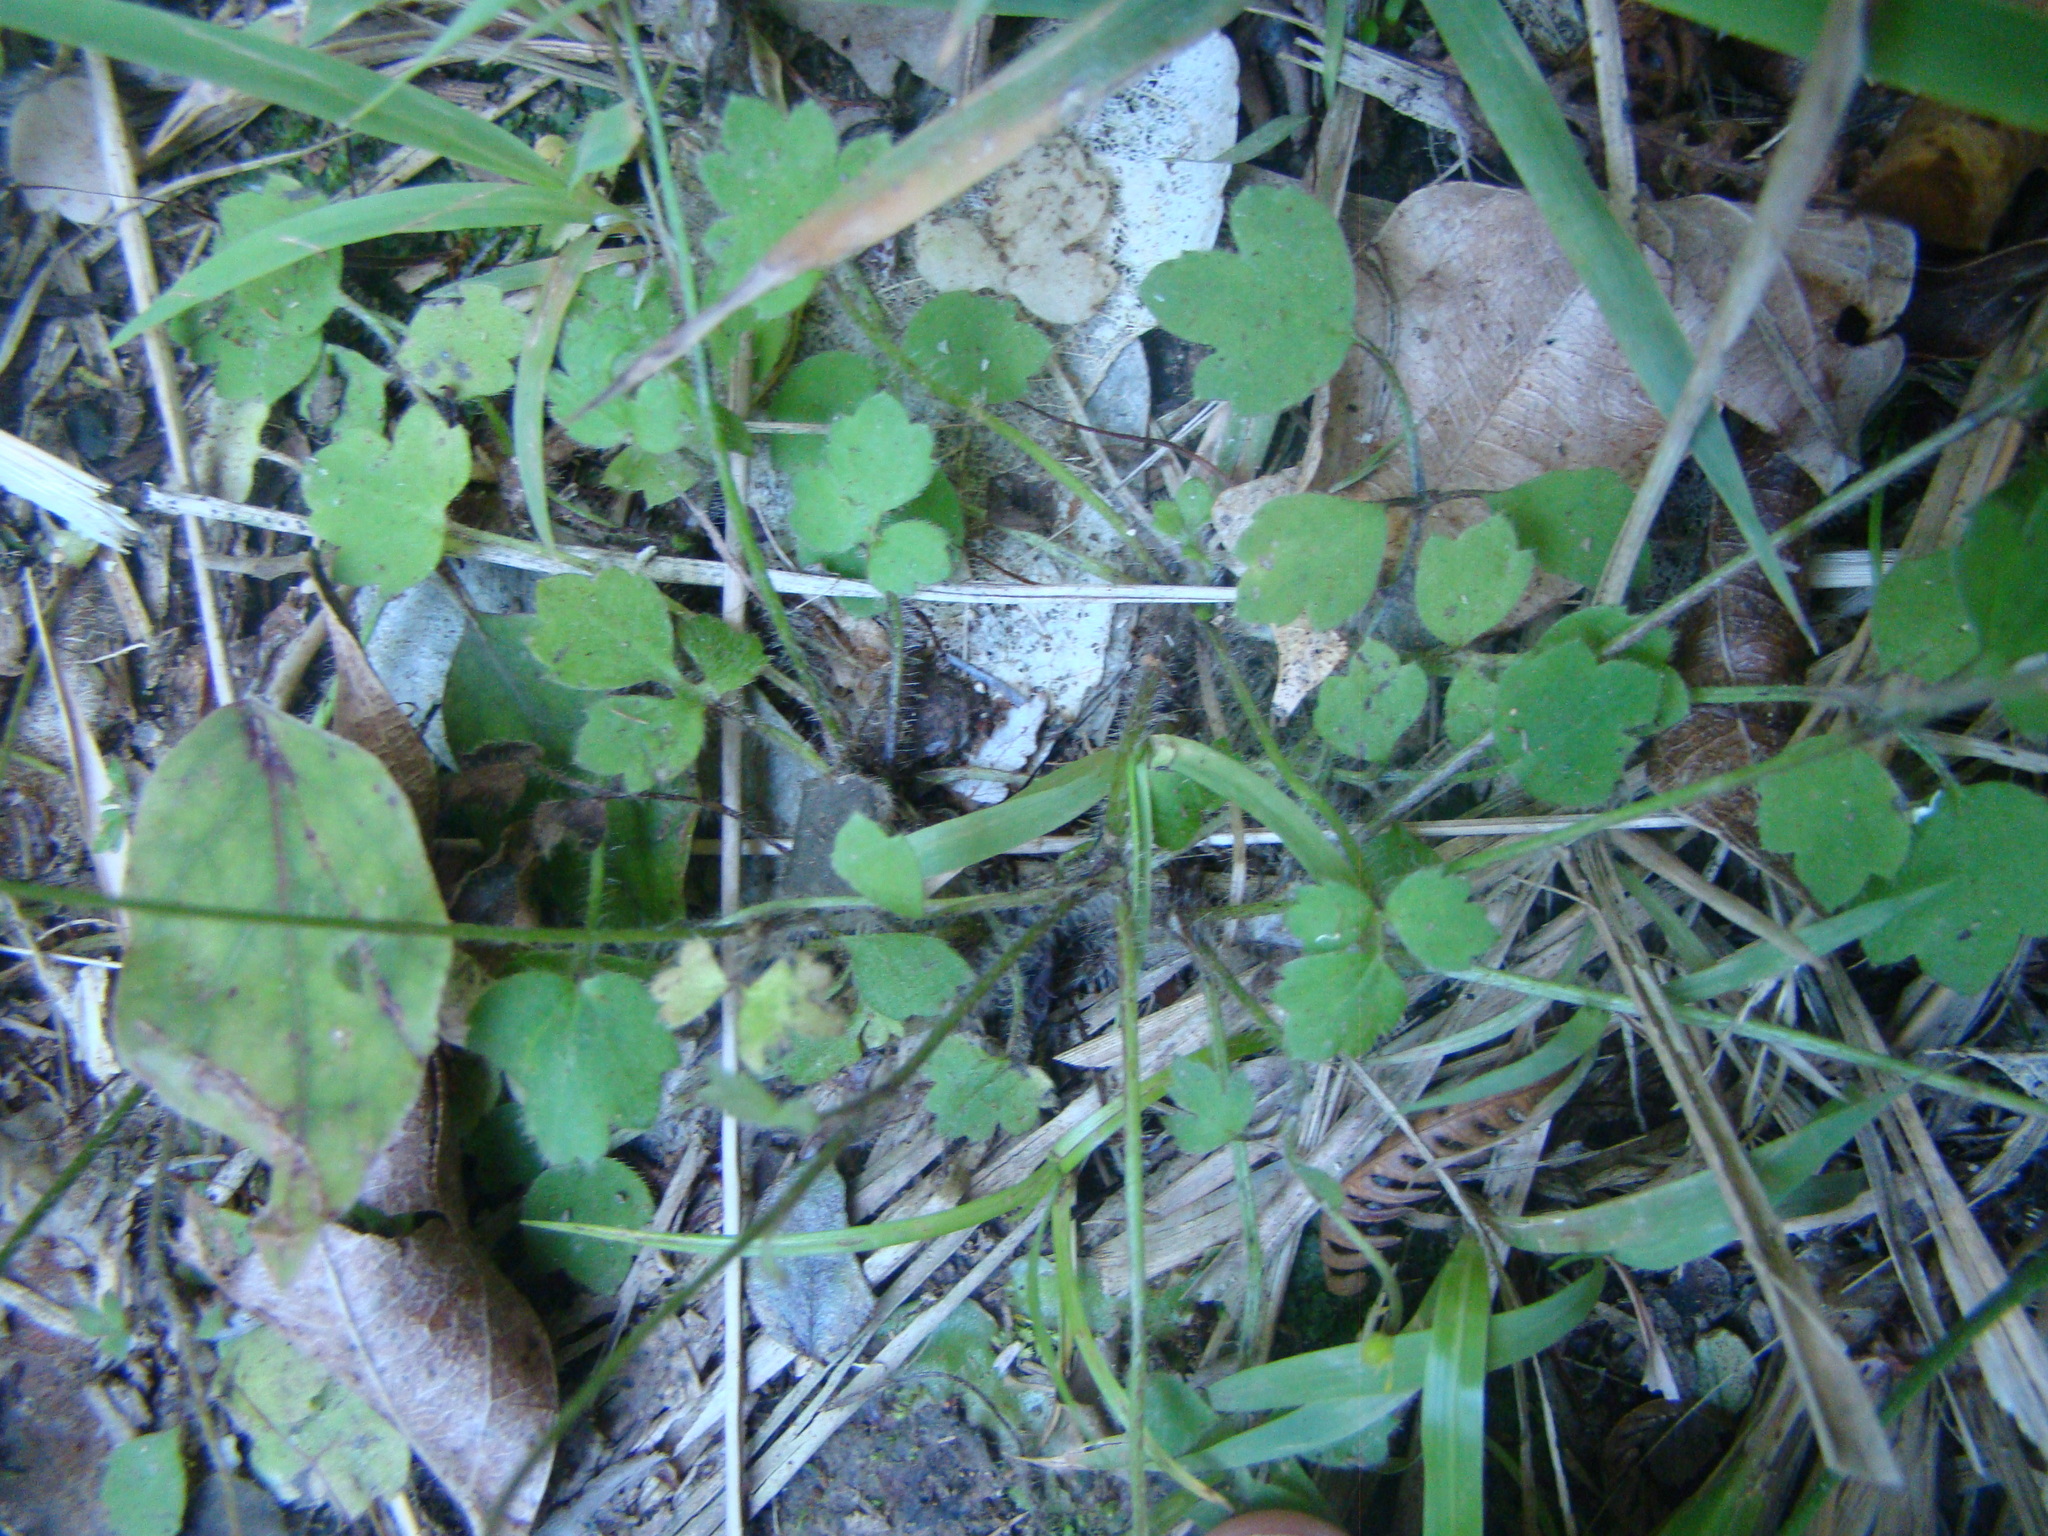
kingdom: Plantae
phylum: Tracheophyta
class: Magnoliopsida
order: Ranunculales
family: Ranunculaceae
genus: Ranunculus
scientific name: Ranunculus reflexus
